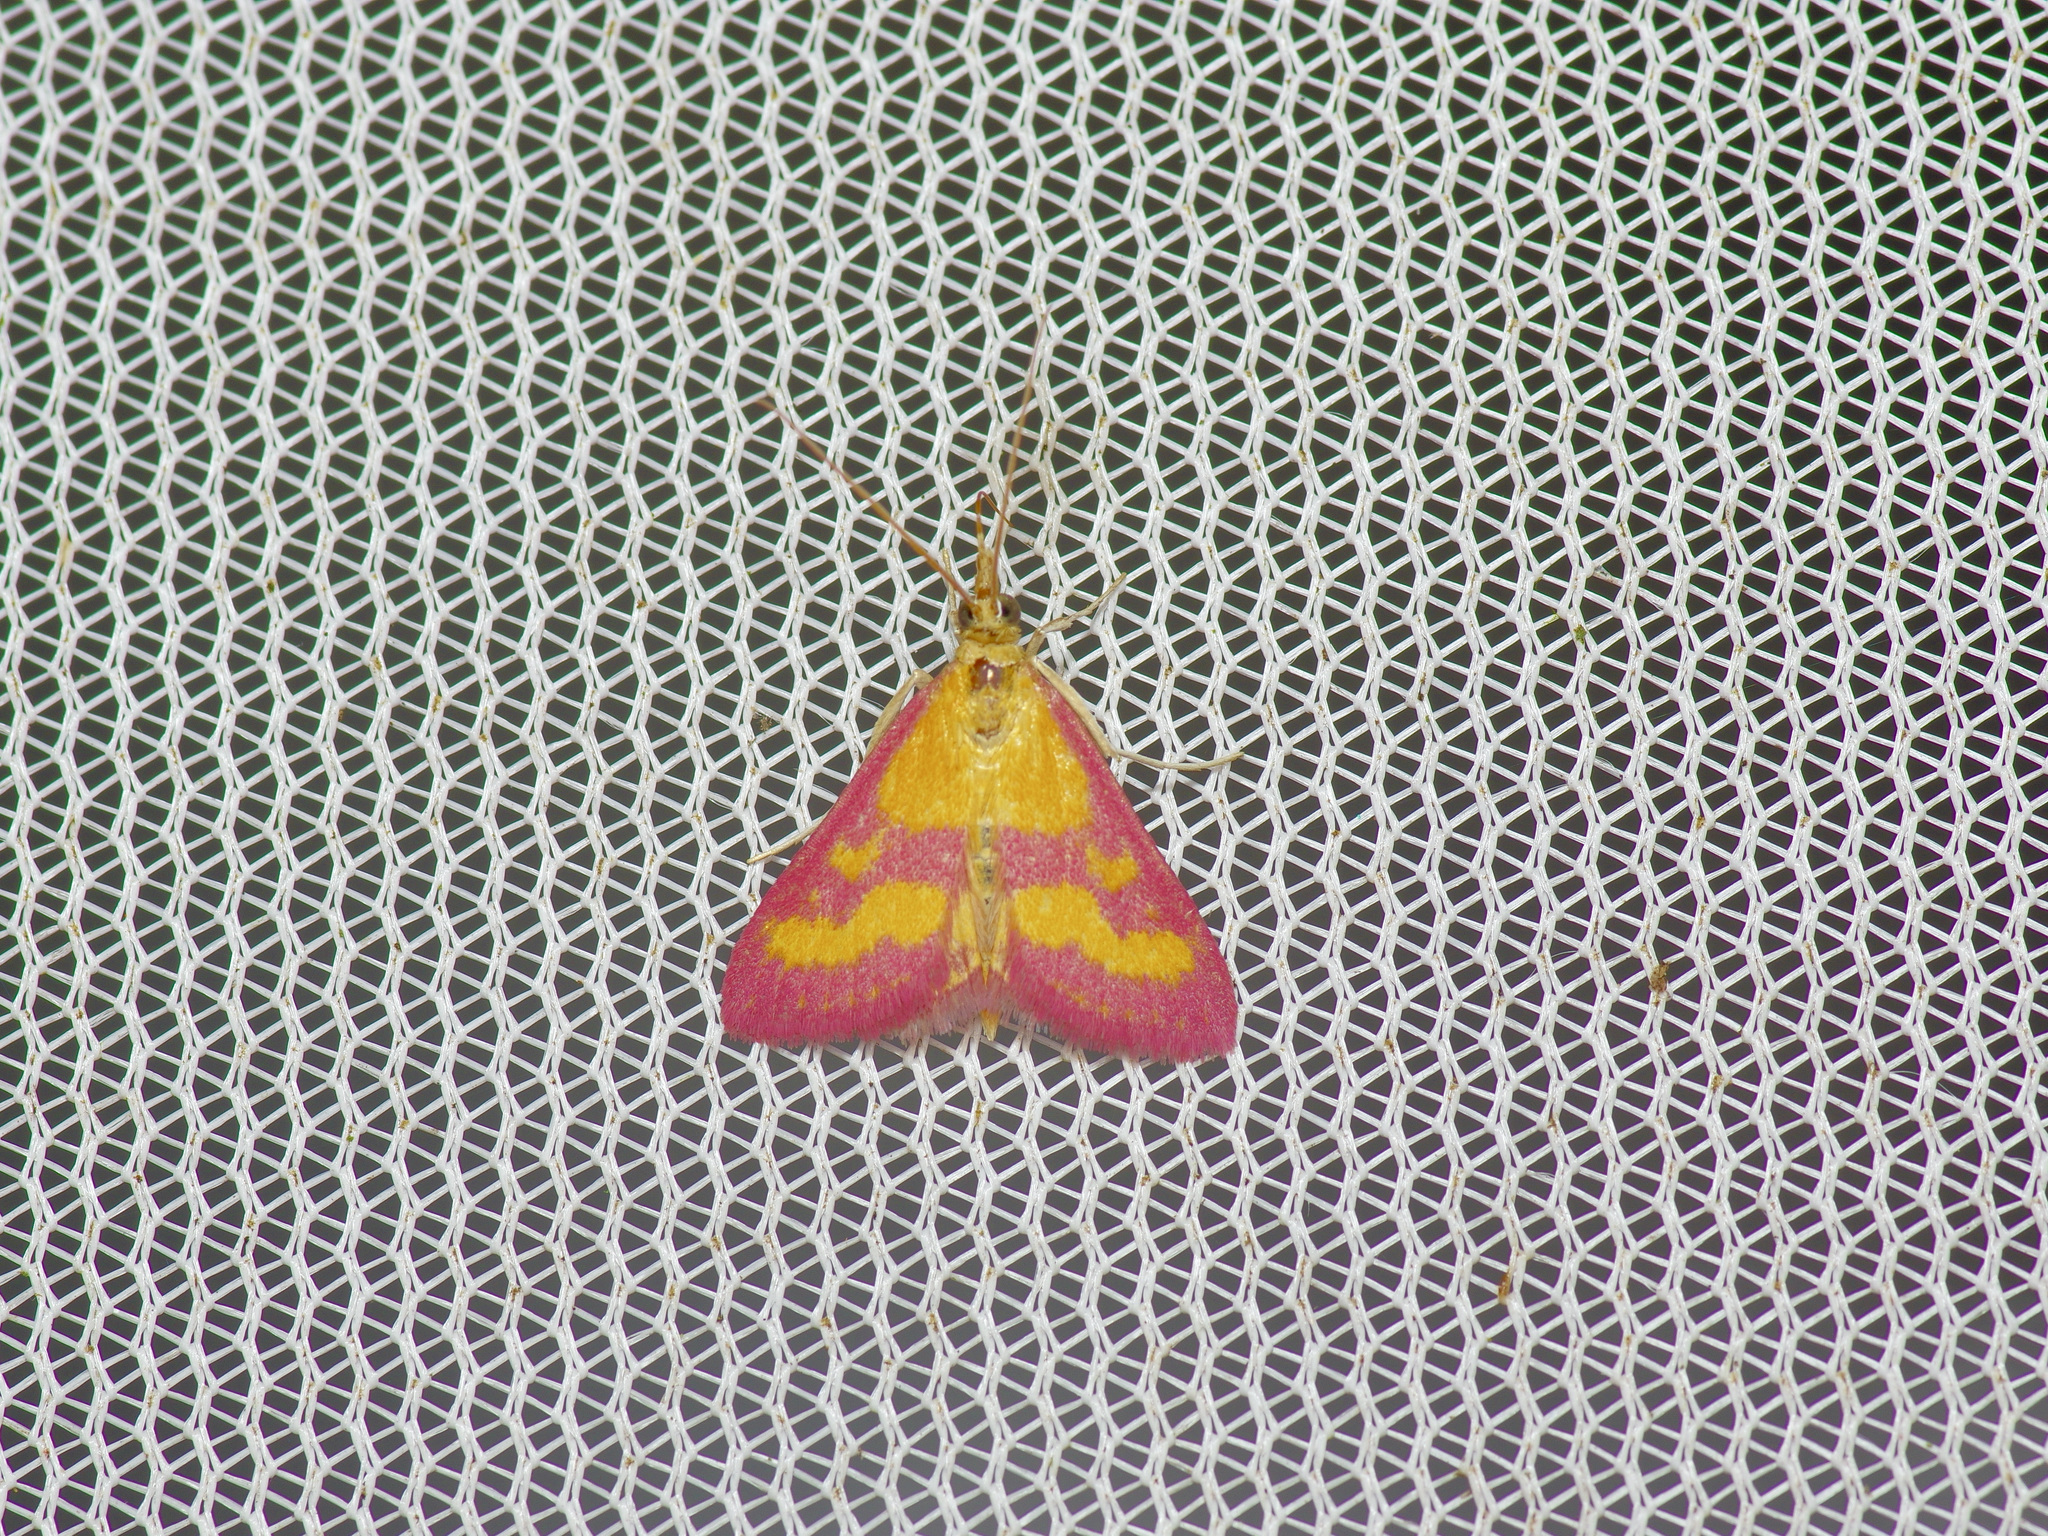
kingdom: Animalia
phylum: Arthropoda
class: Insecta
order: Lepidoptera
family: Crambidae
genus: Pyrausta
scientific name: Pyrausta laticlavia
